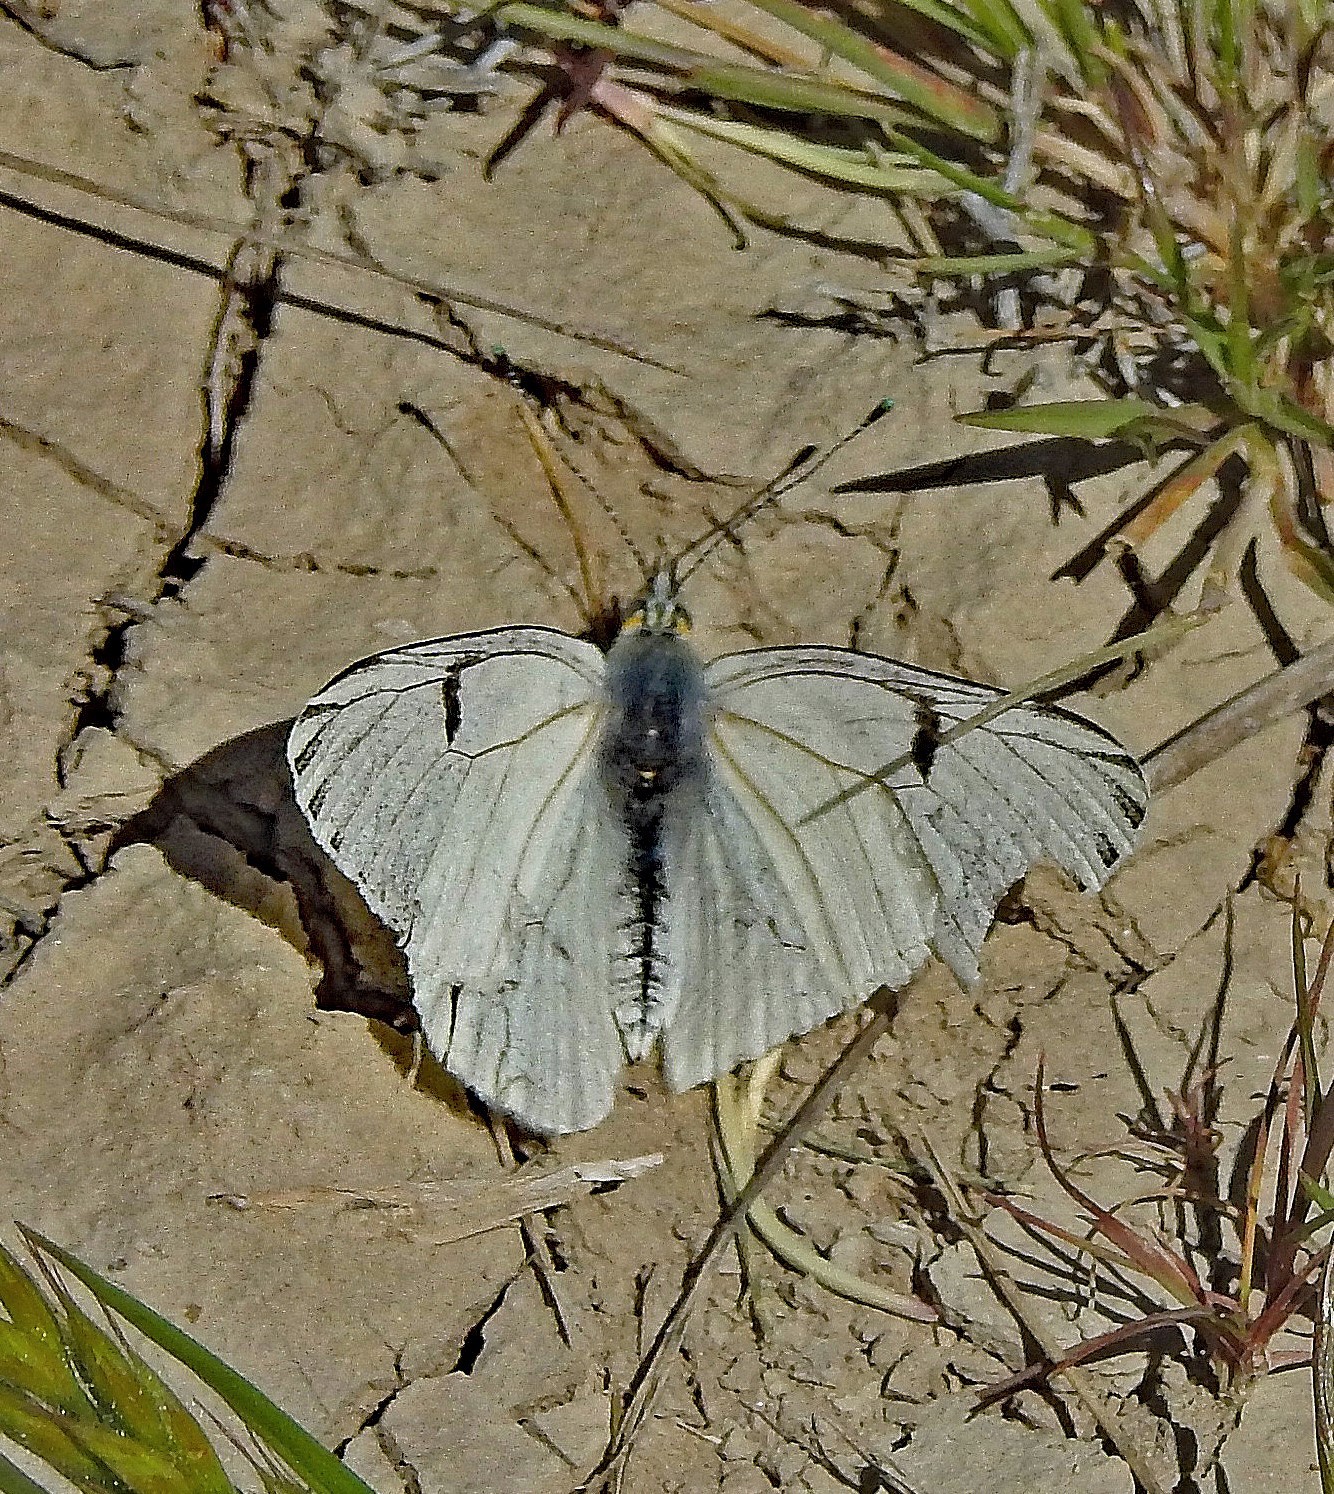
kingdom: Animalia
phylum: Arthropoda
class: Insecta
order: Lepidoptera
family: Pieridae
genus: Tatochila
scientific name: Tatochila mercedis
